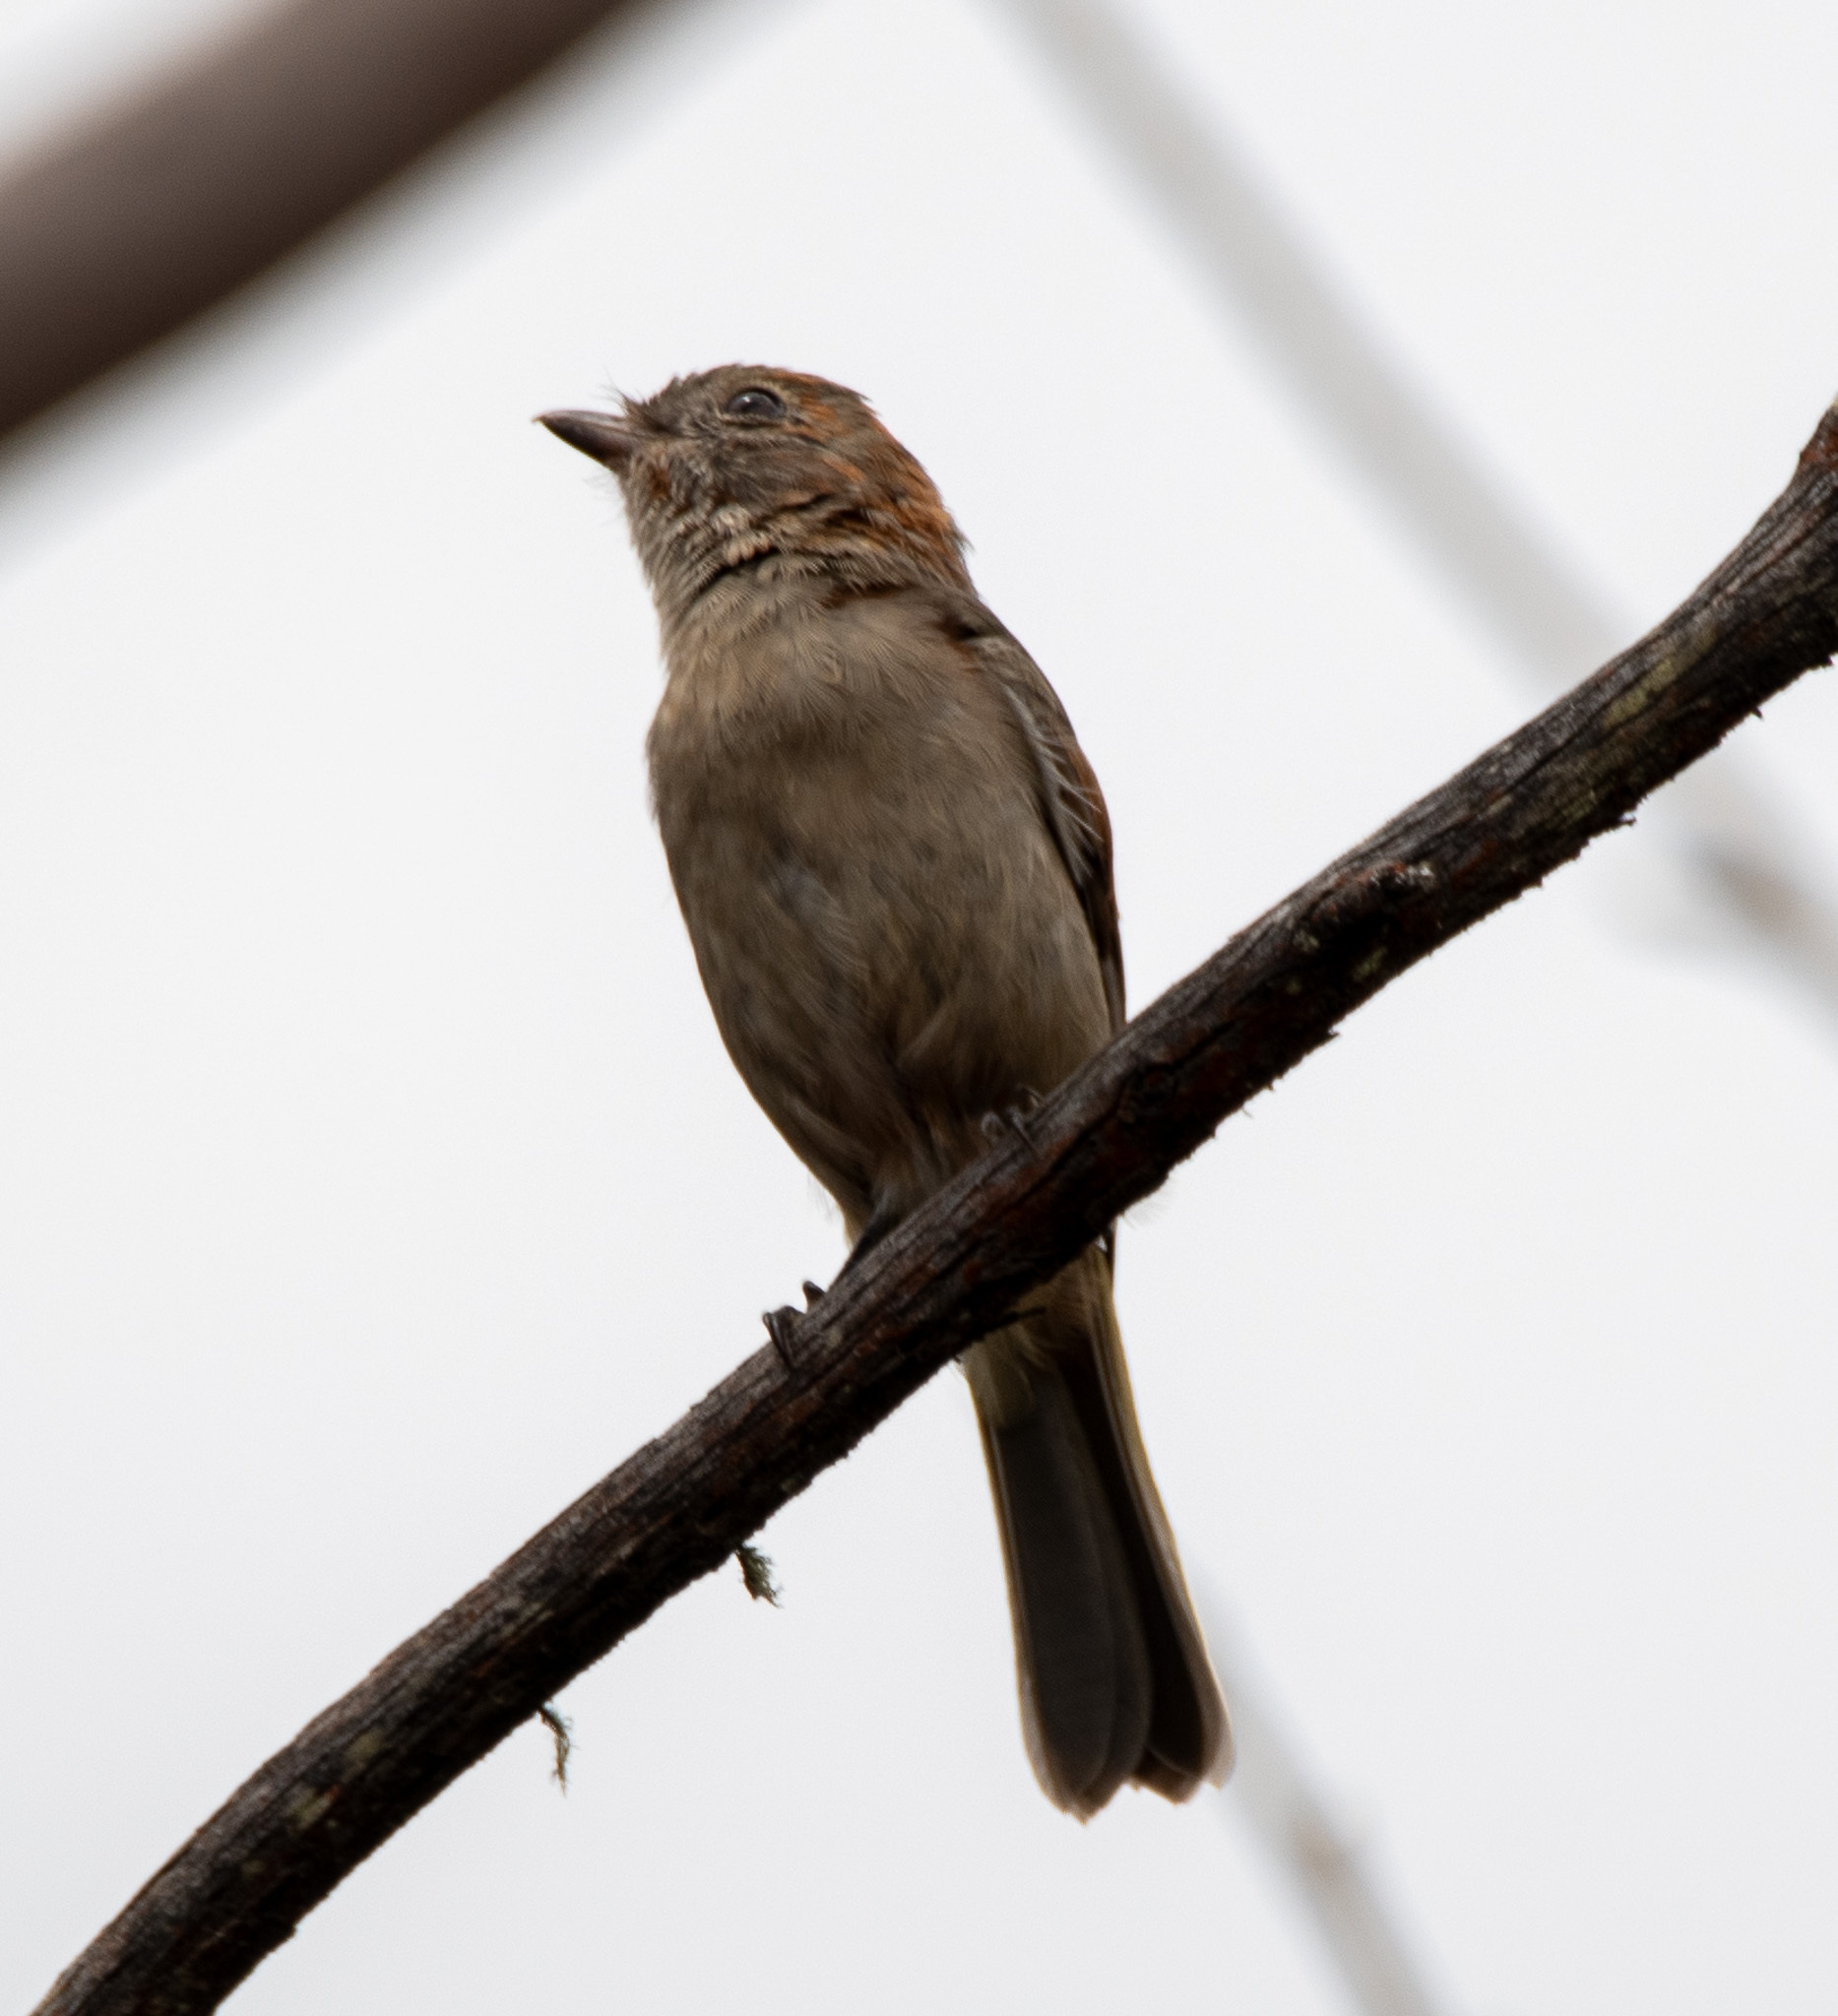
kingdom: Animalia
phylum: Chordata
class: Aves
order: Passeriformes
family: Pachycephalidae
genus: Pachycephala
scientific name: Pachycephala pectoralis
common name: Australian golden whistler
